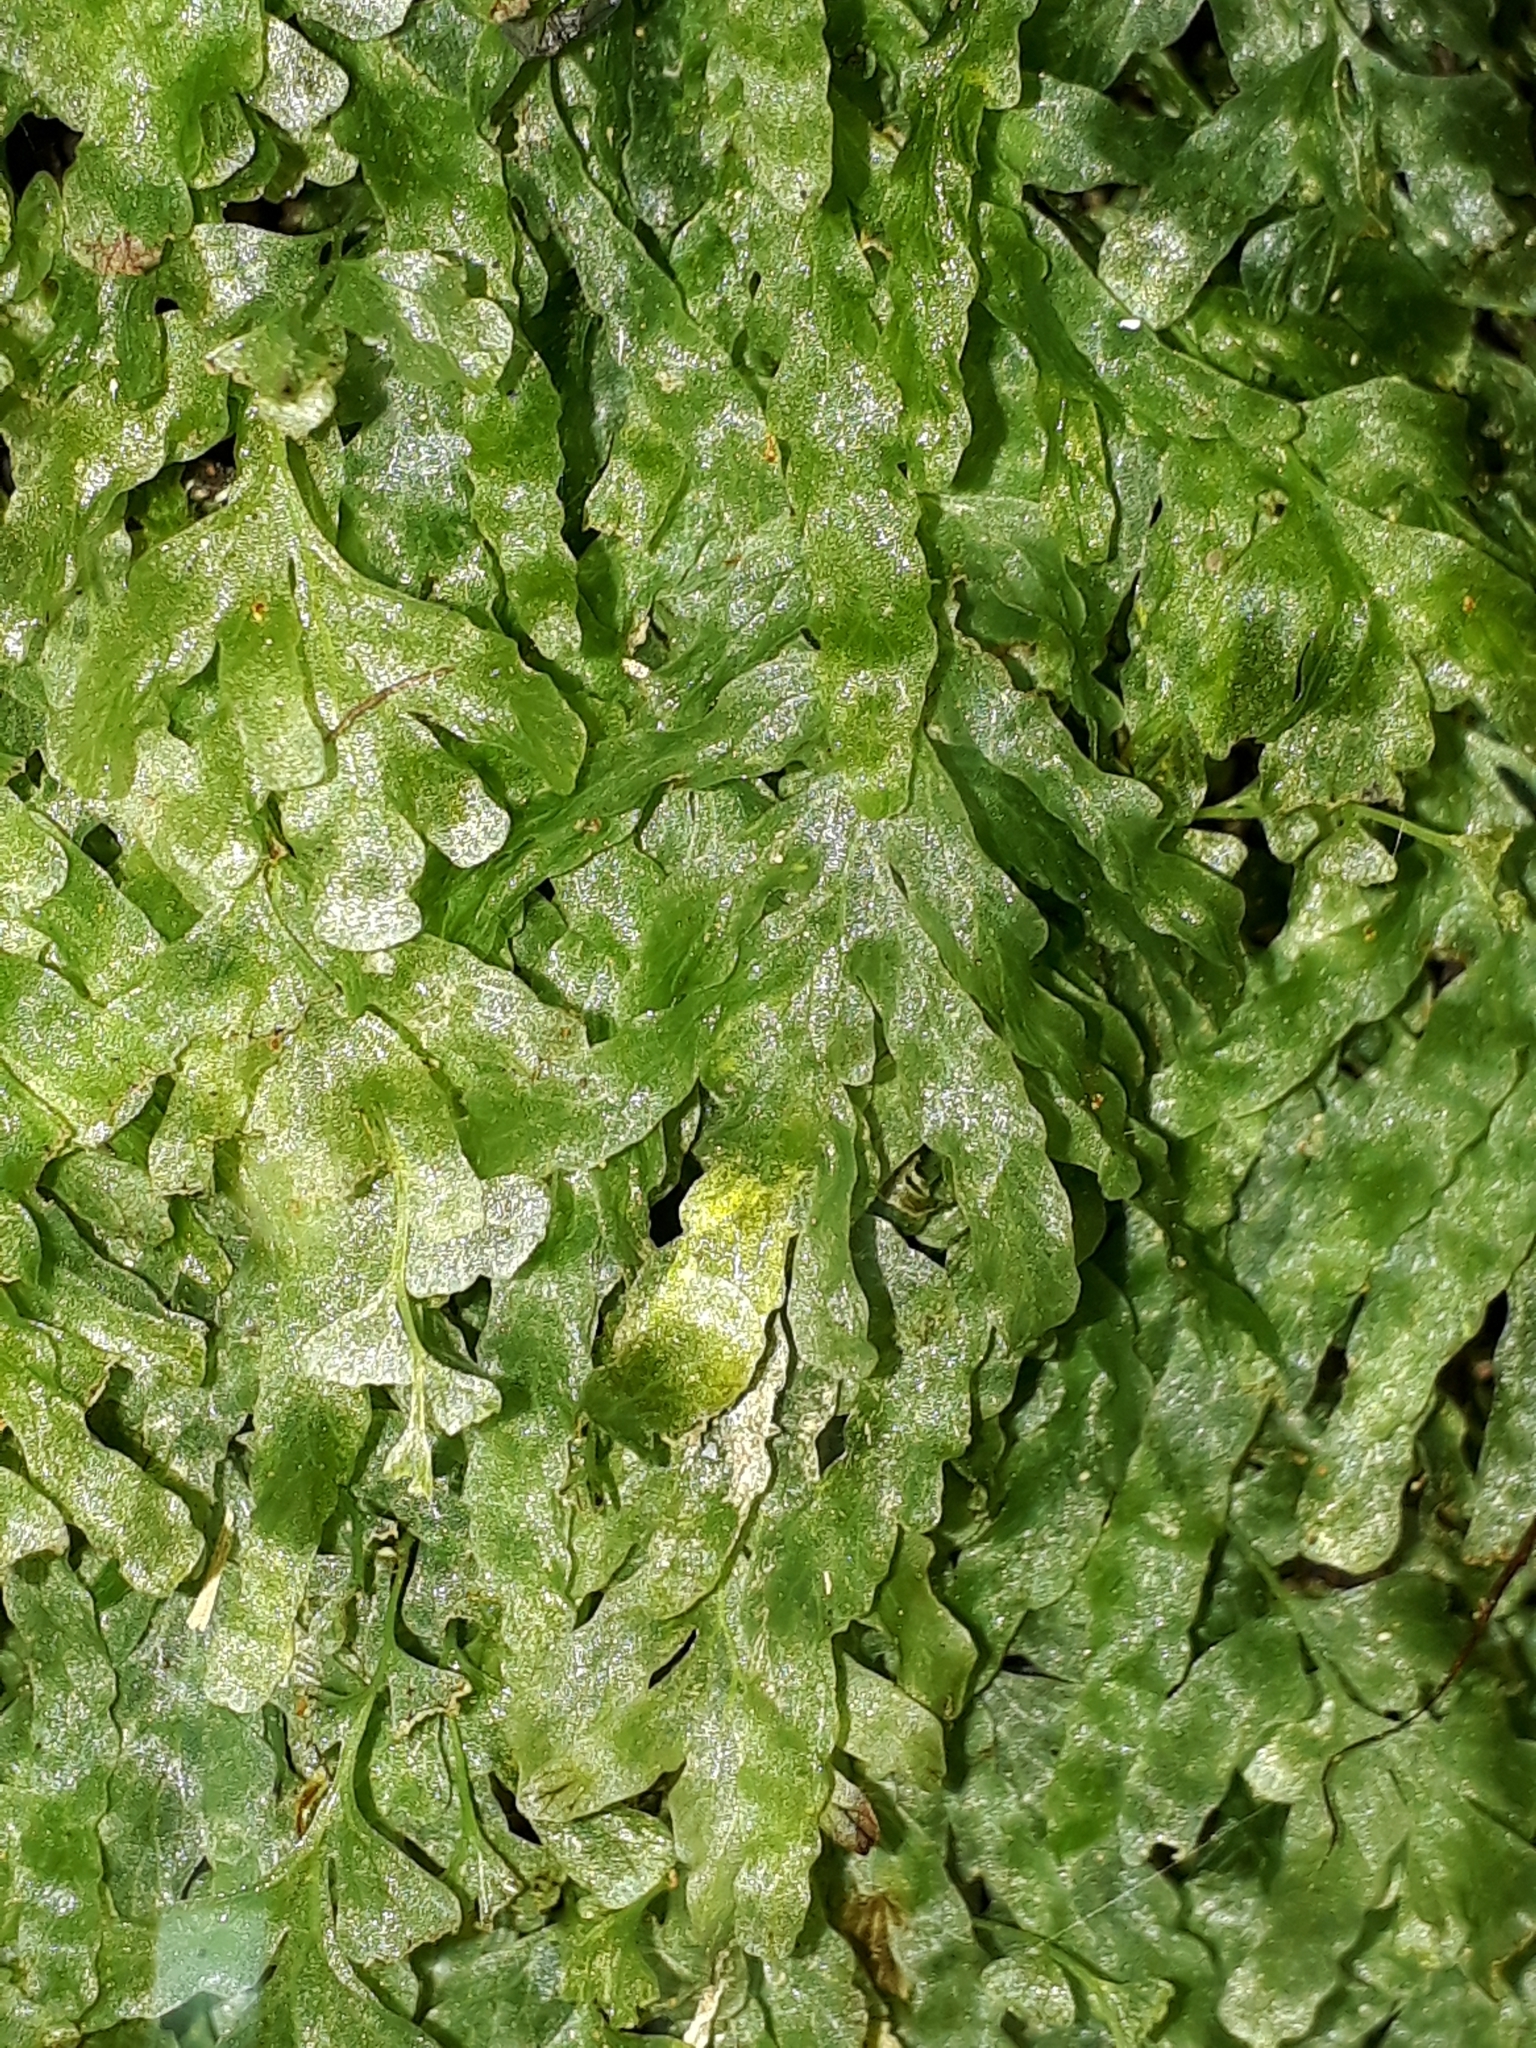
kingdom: Plantae
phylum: Tracheophyta
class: Polypodiopsida
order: Hymenophyllales
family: Hymenophyllaceae
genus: Polyphlebium
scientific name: Polyphlebium venosum
